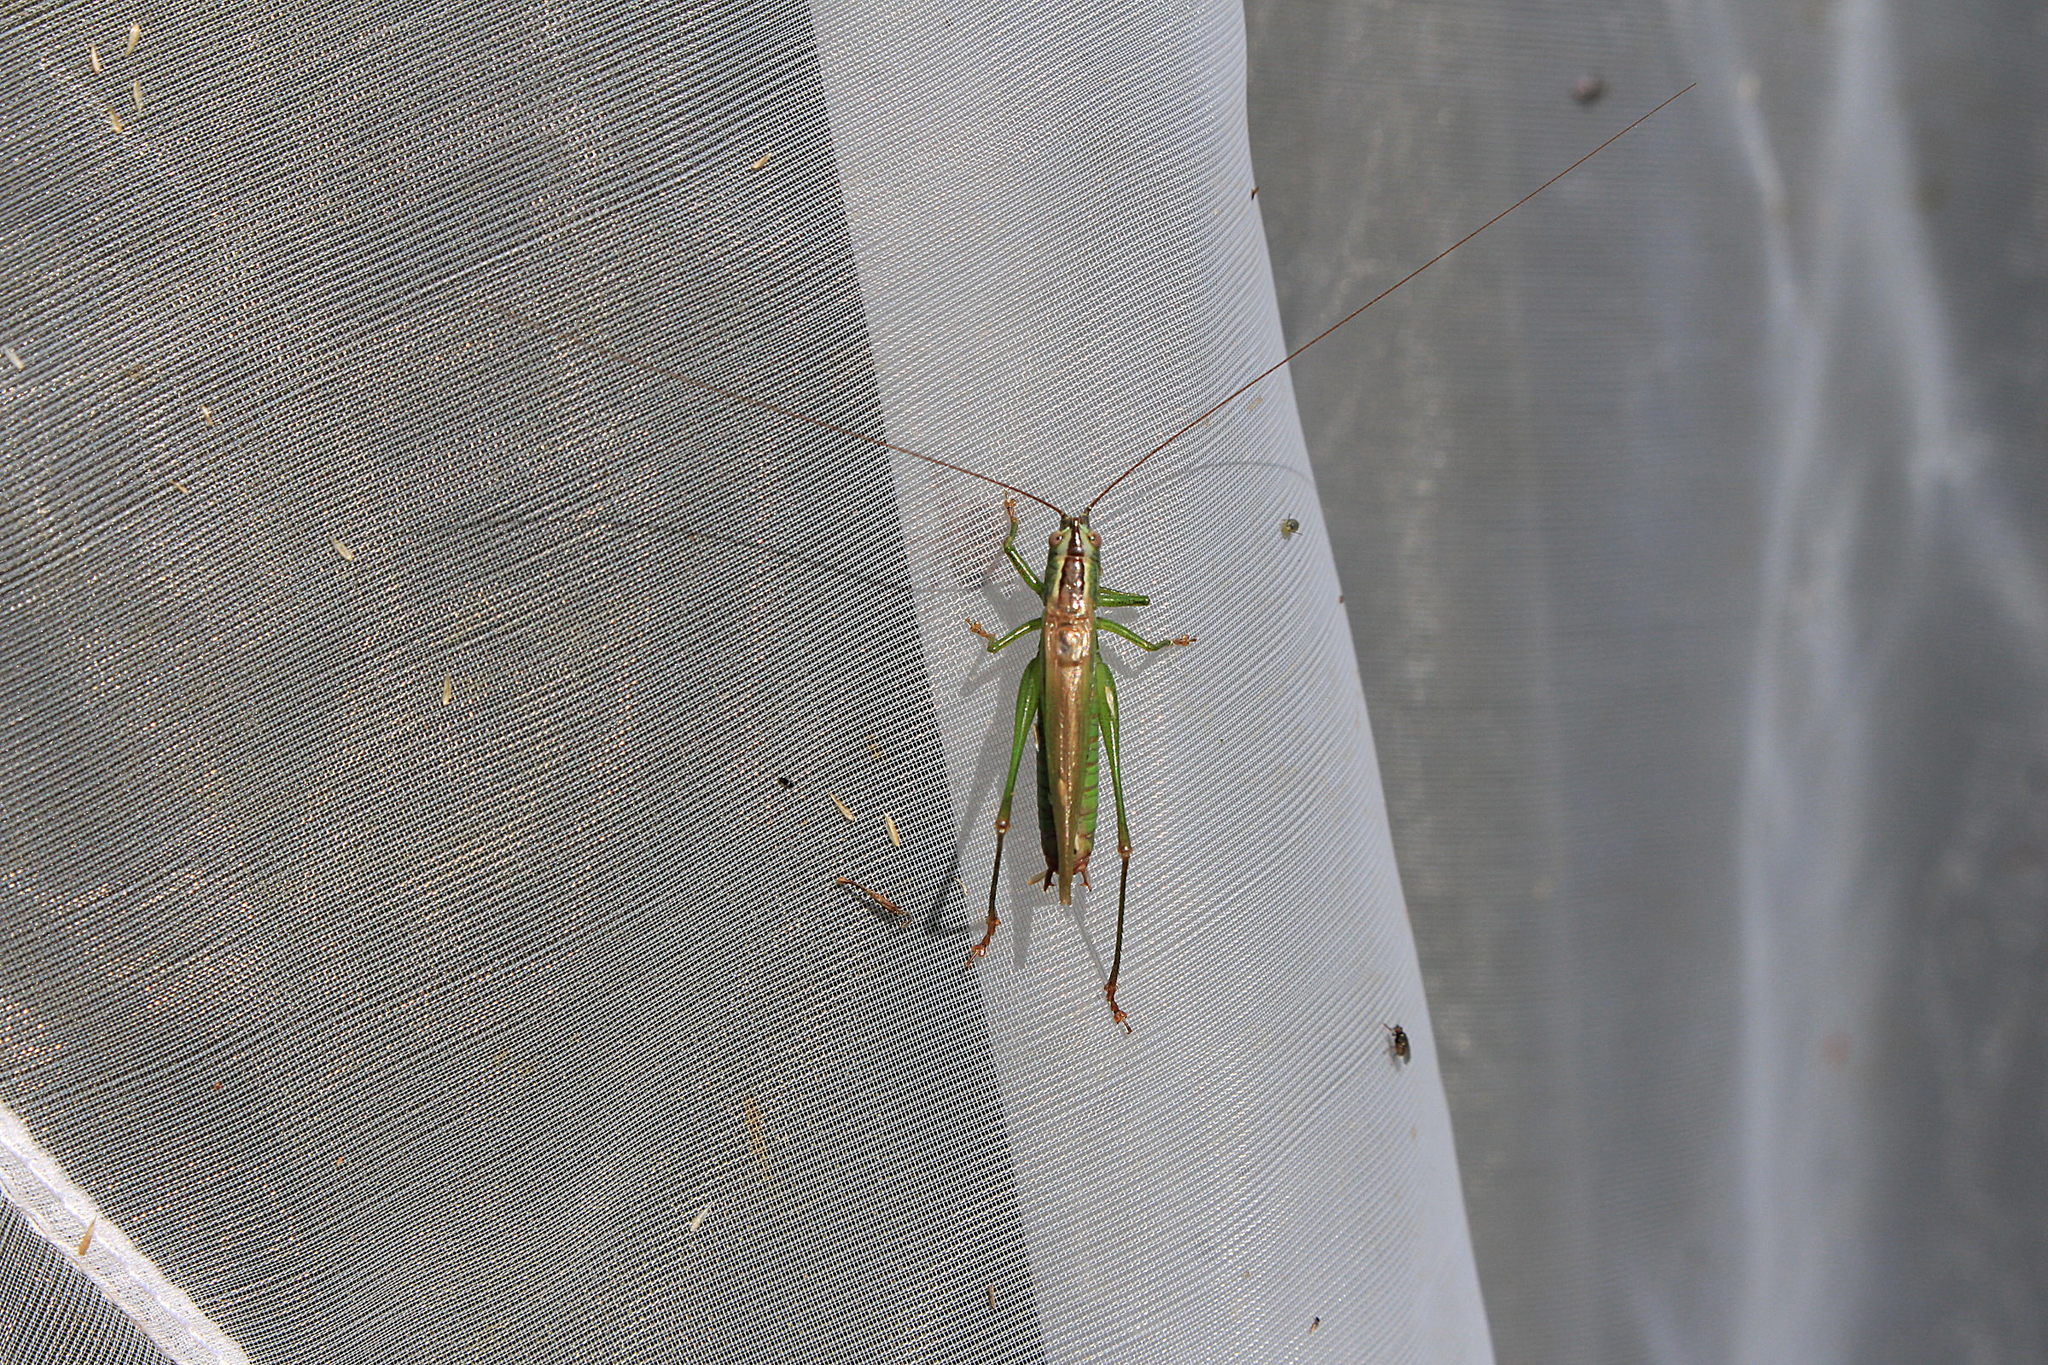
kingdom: Animalia
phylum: Arthropoda
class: Insecta
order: Orthoptera
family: Tettigoniidae
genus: Conocephalus
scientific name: Conocephalus fuscus
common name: Long-winged conehead
